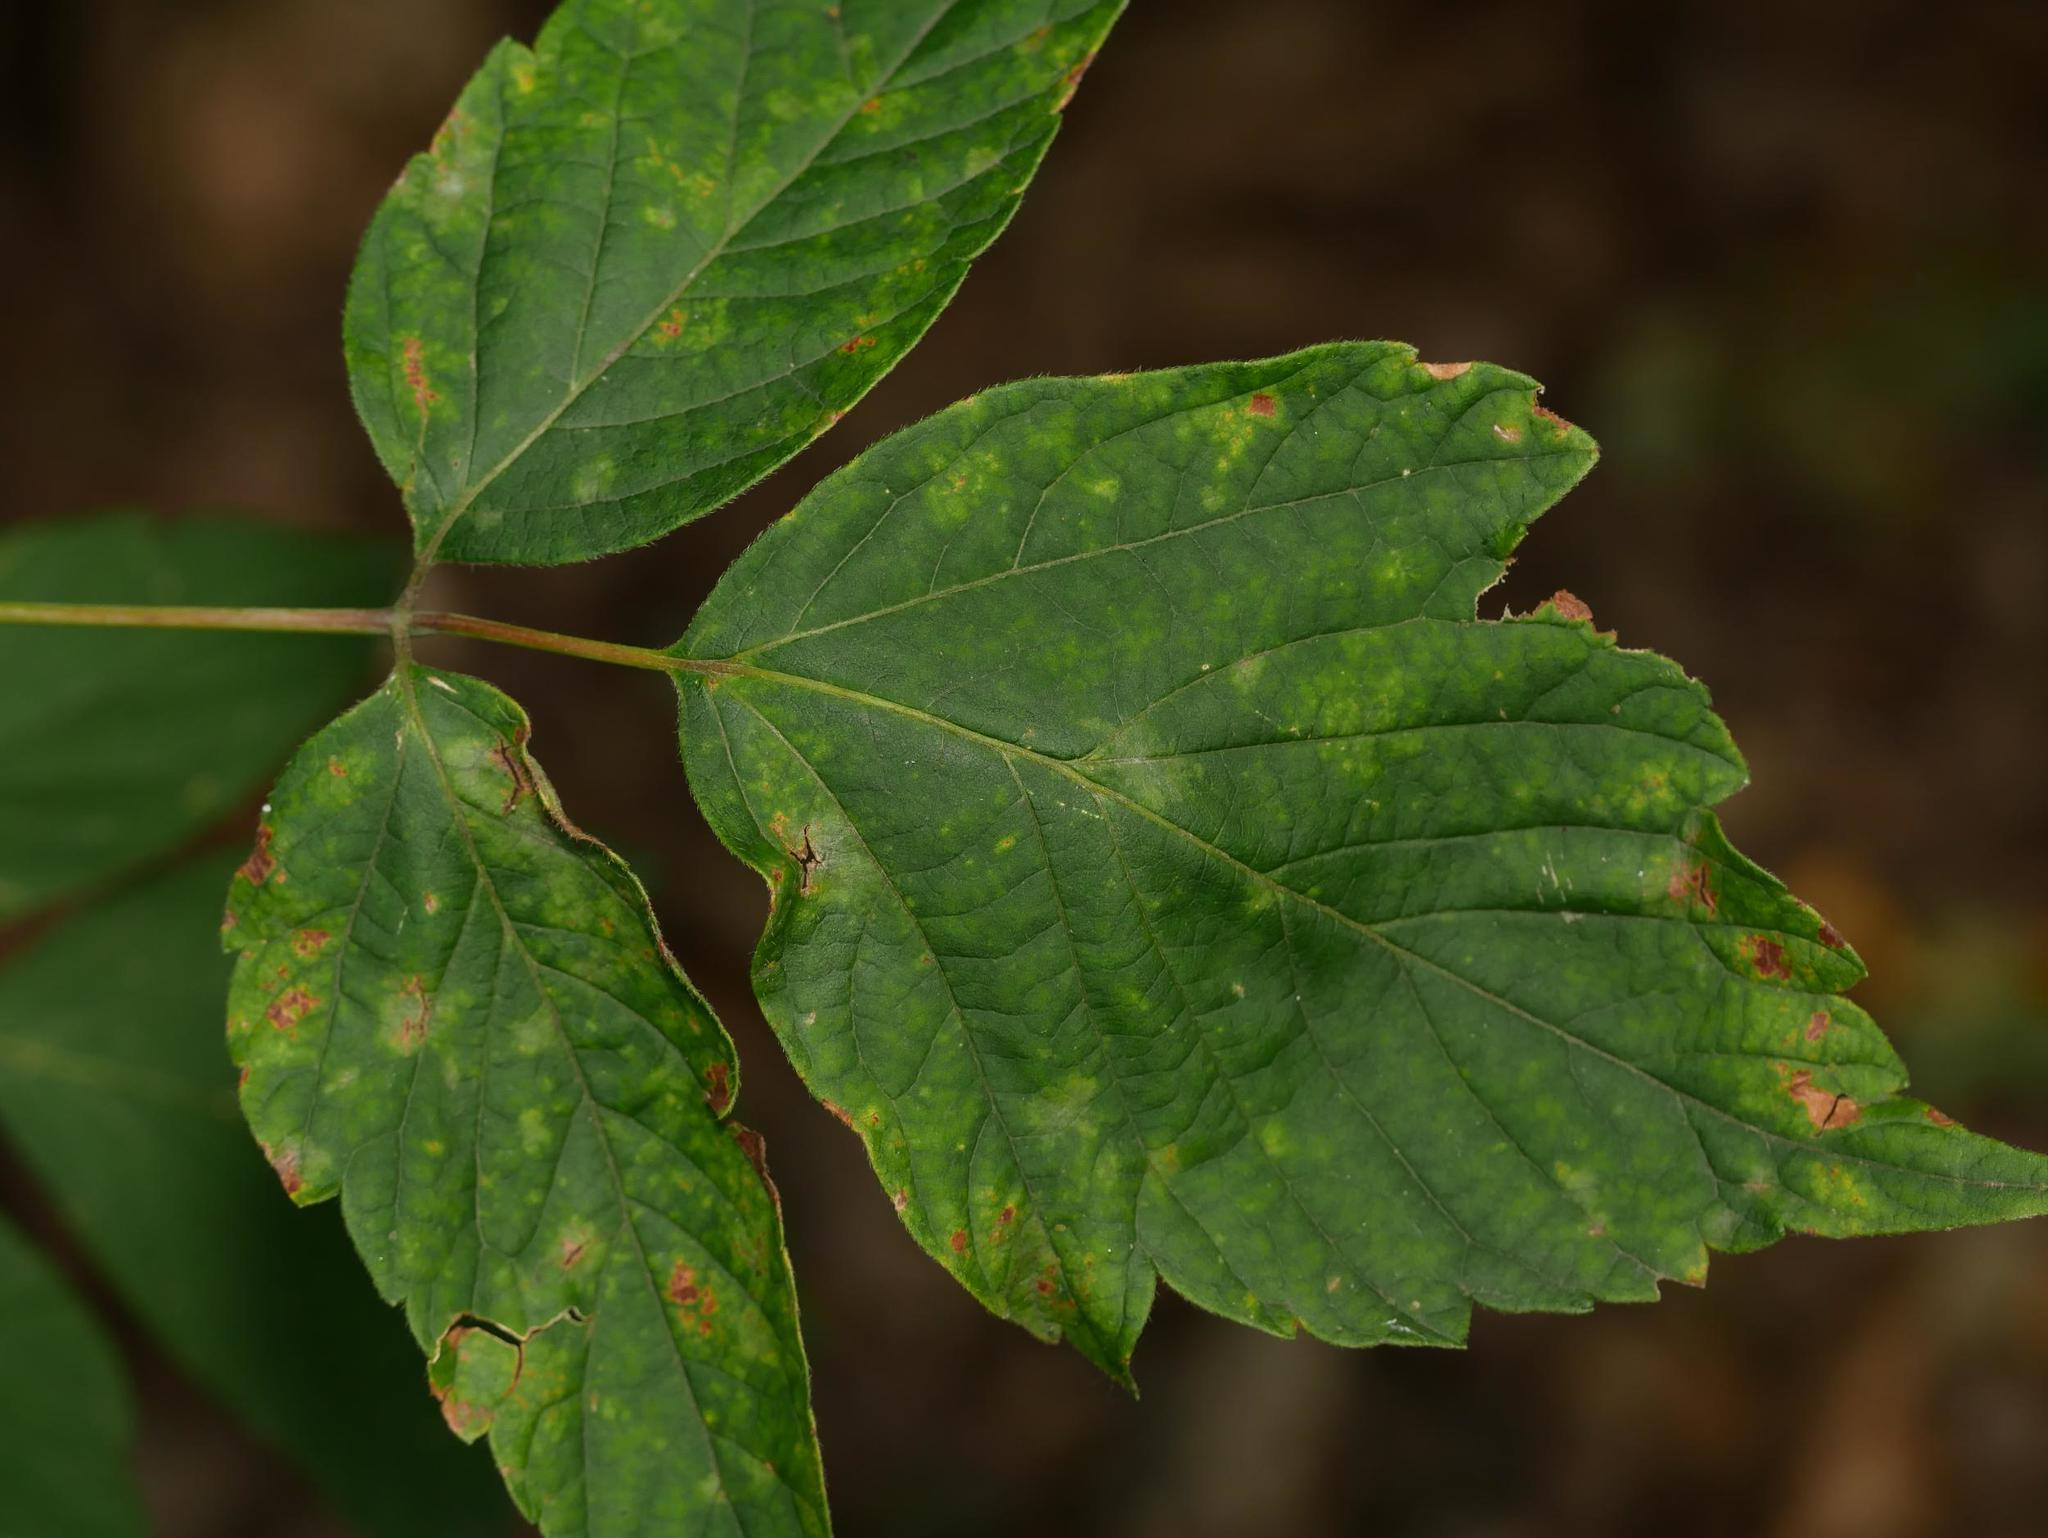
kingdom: Plantae
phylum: Tracheophyta
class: Magnoliopsida
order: Sapindales
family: Sapindaceae
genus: Acer
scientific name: Acer negundo
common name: Ashleaf maple
